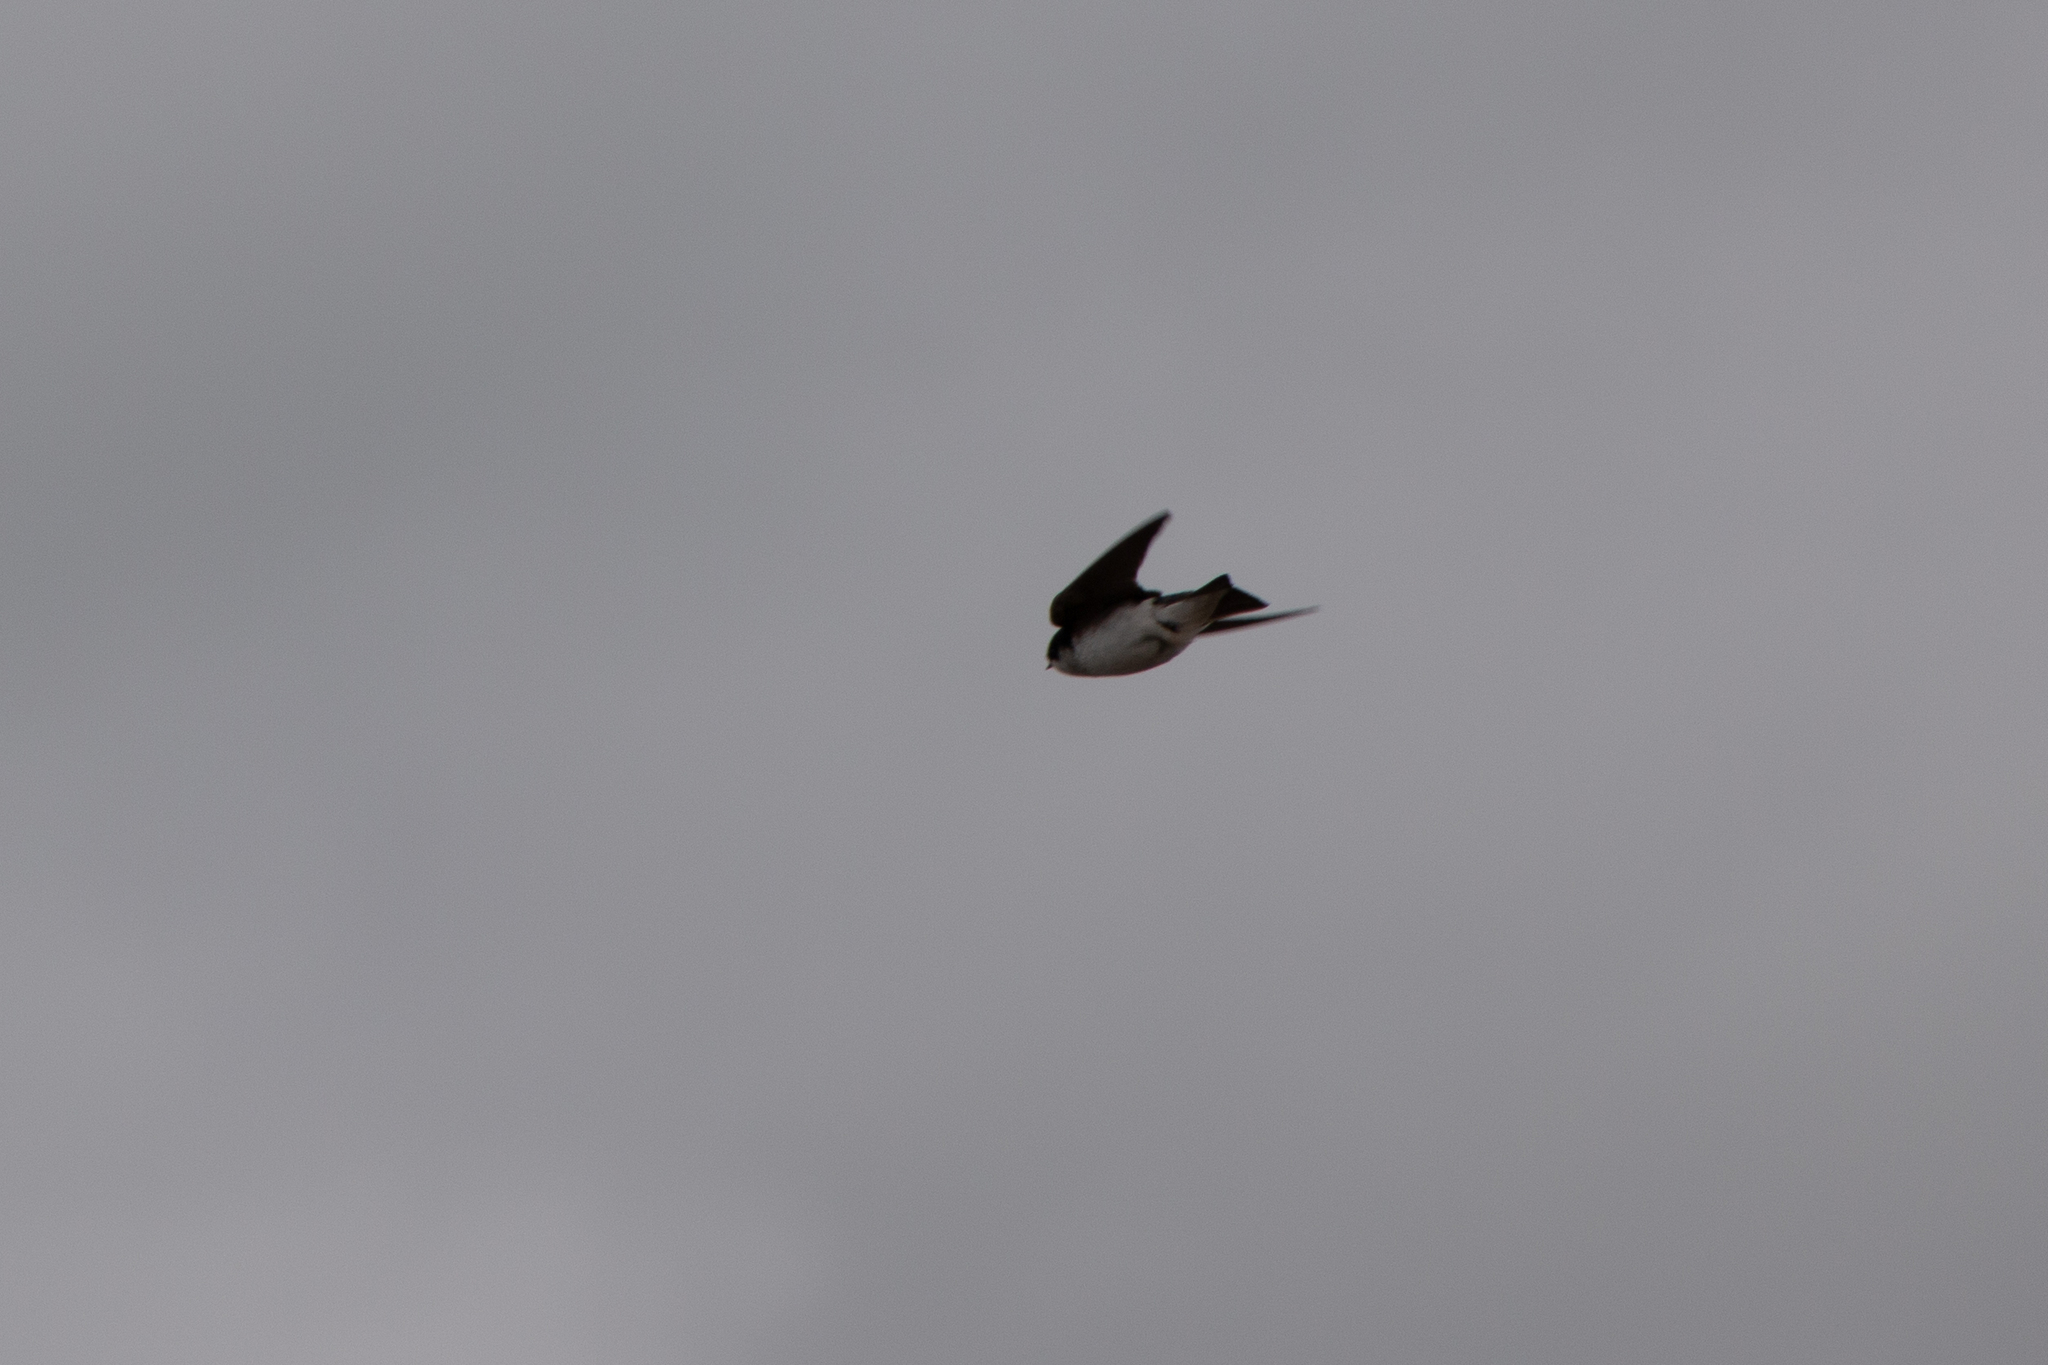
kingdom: Animalia
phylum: Chordata
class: Aves
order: Passeriformes
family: Hirundinidae
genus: Tachycineta
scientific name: Tachycineta thalassina
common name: Violet-green swallow
